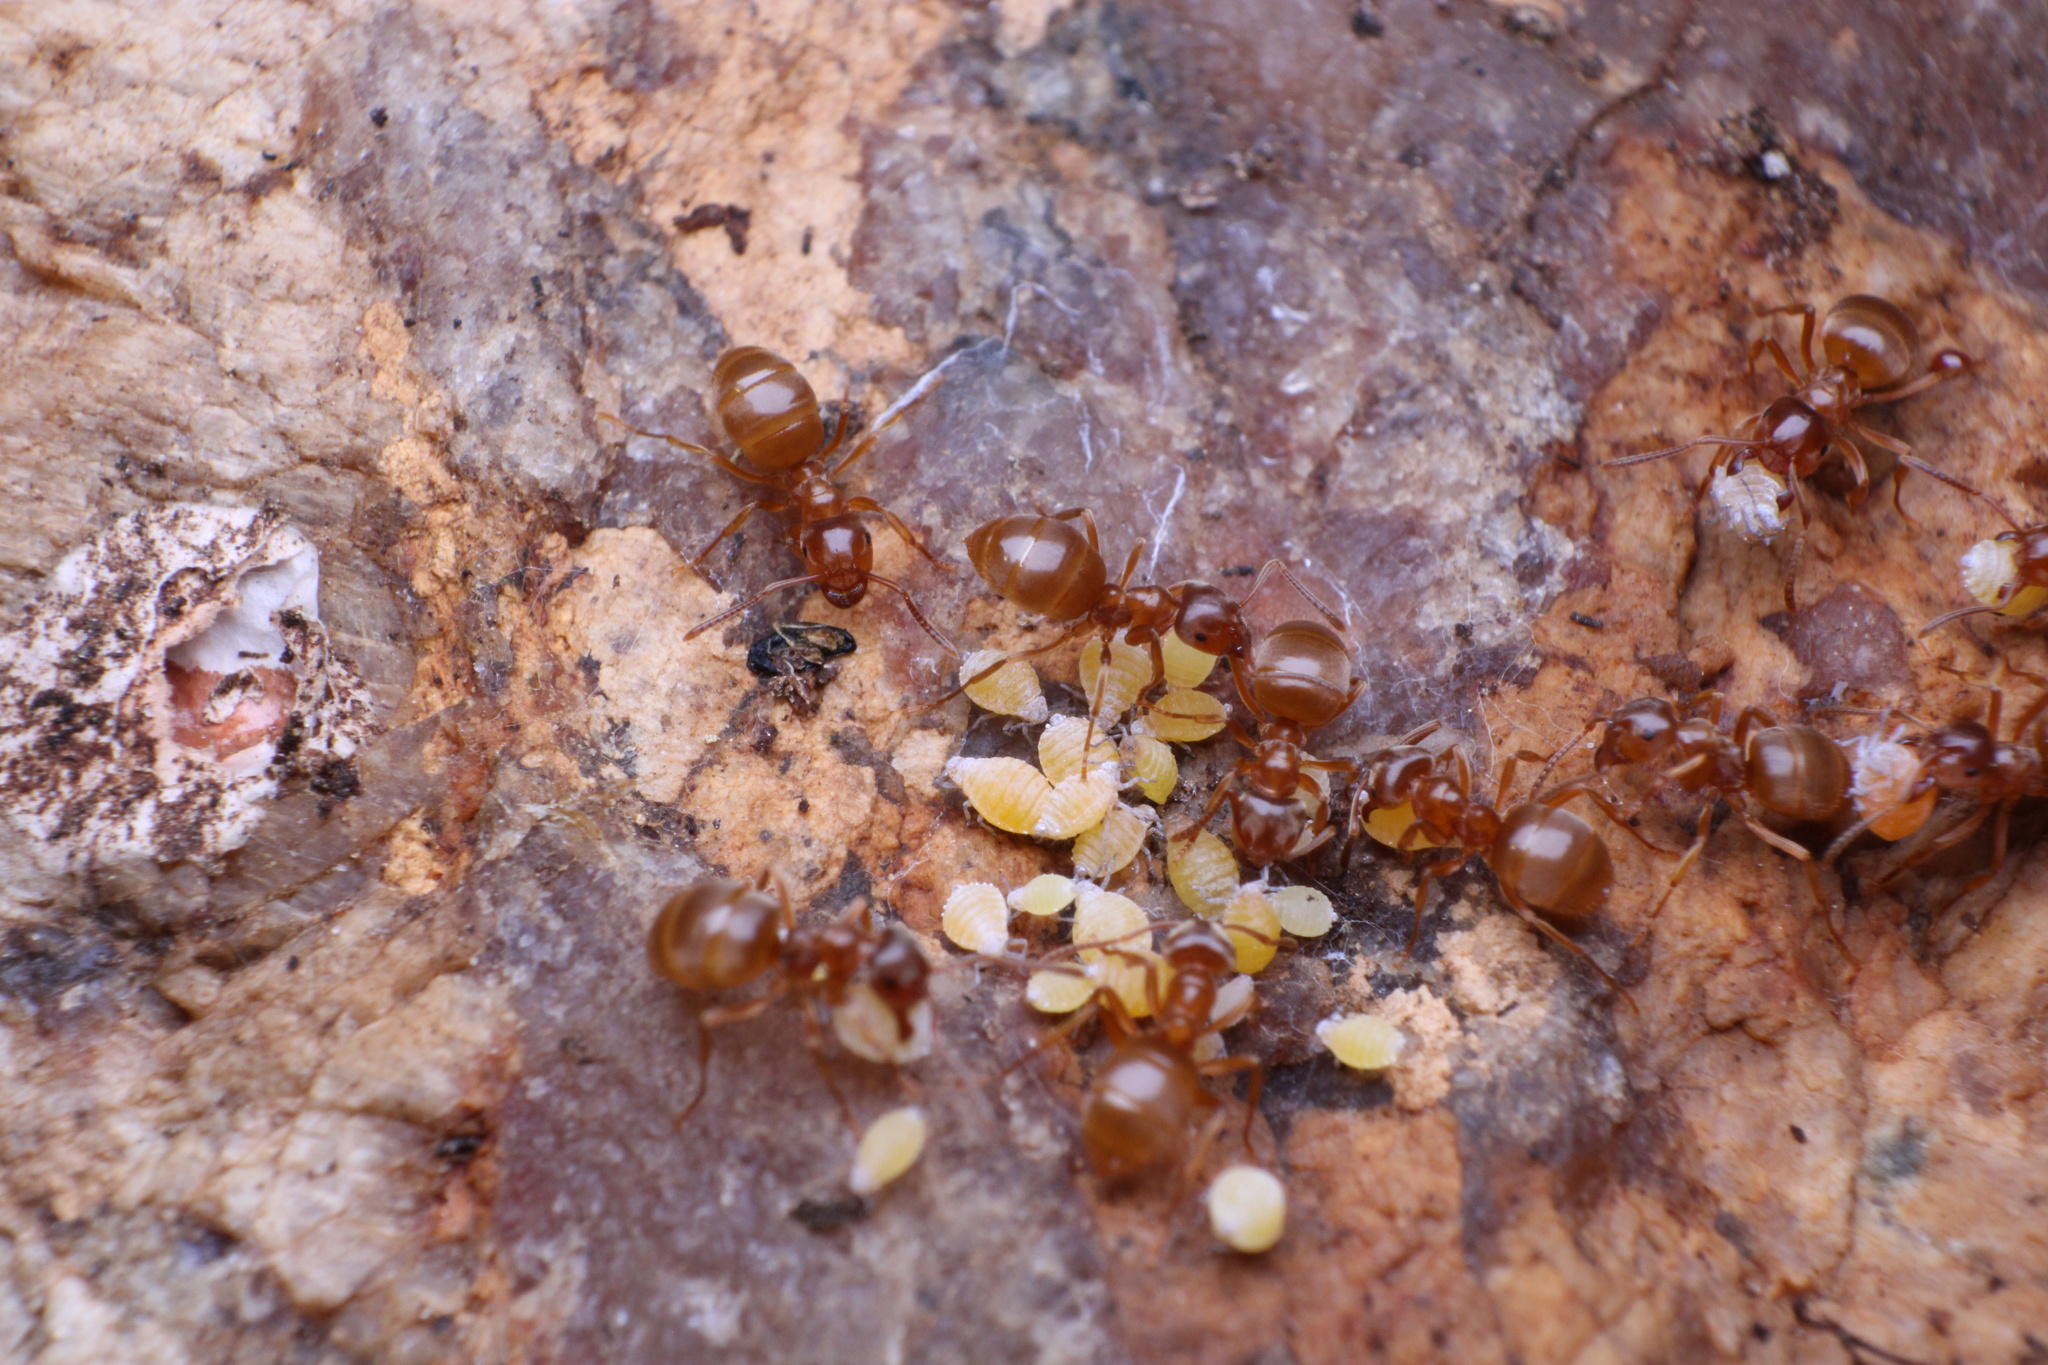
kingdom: Animalia
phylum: Arthropoda
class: Insecta
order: Hymenoptera
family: Formicidae
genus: Lasius
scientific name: Lasius aphidicola
